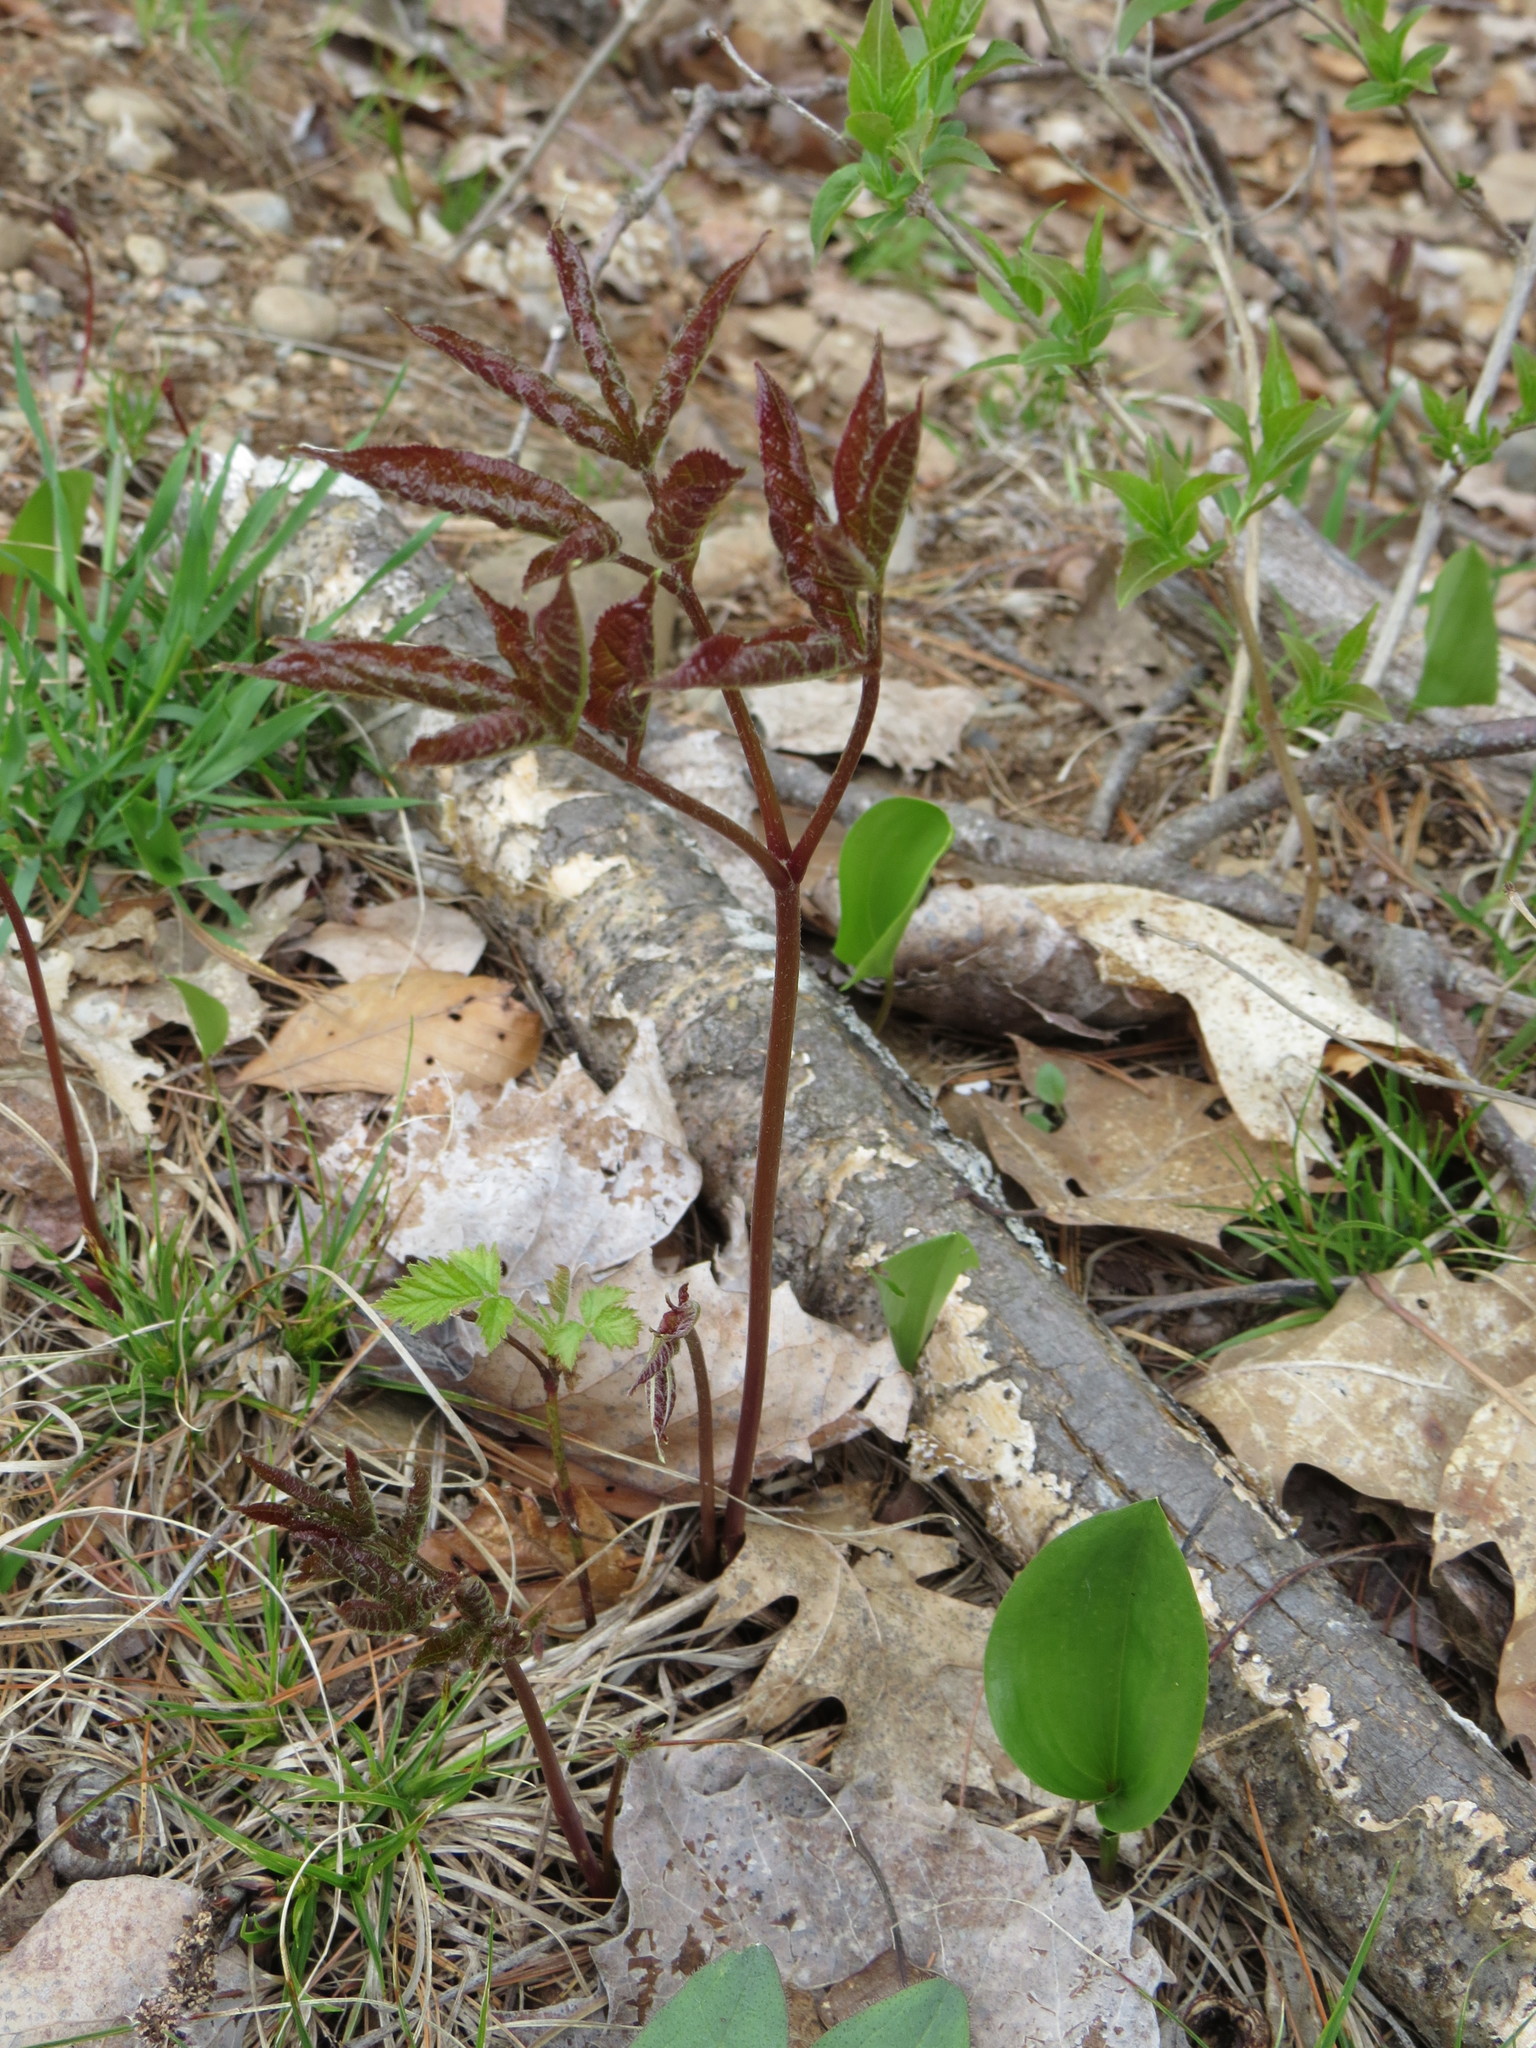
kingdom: Plantae
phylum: Tracheophyta
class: Magnoliopsida
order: Apiales
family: Araliaceae
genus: Aralia
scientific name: Aralia nudicaulis
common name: Wild sarsaparilla
